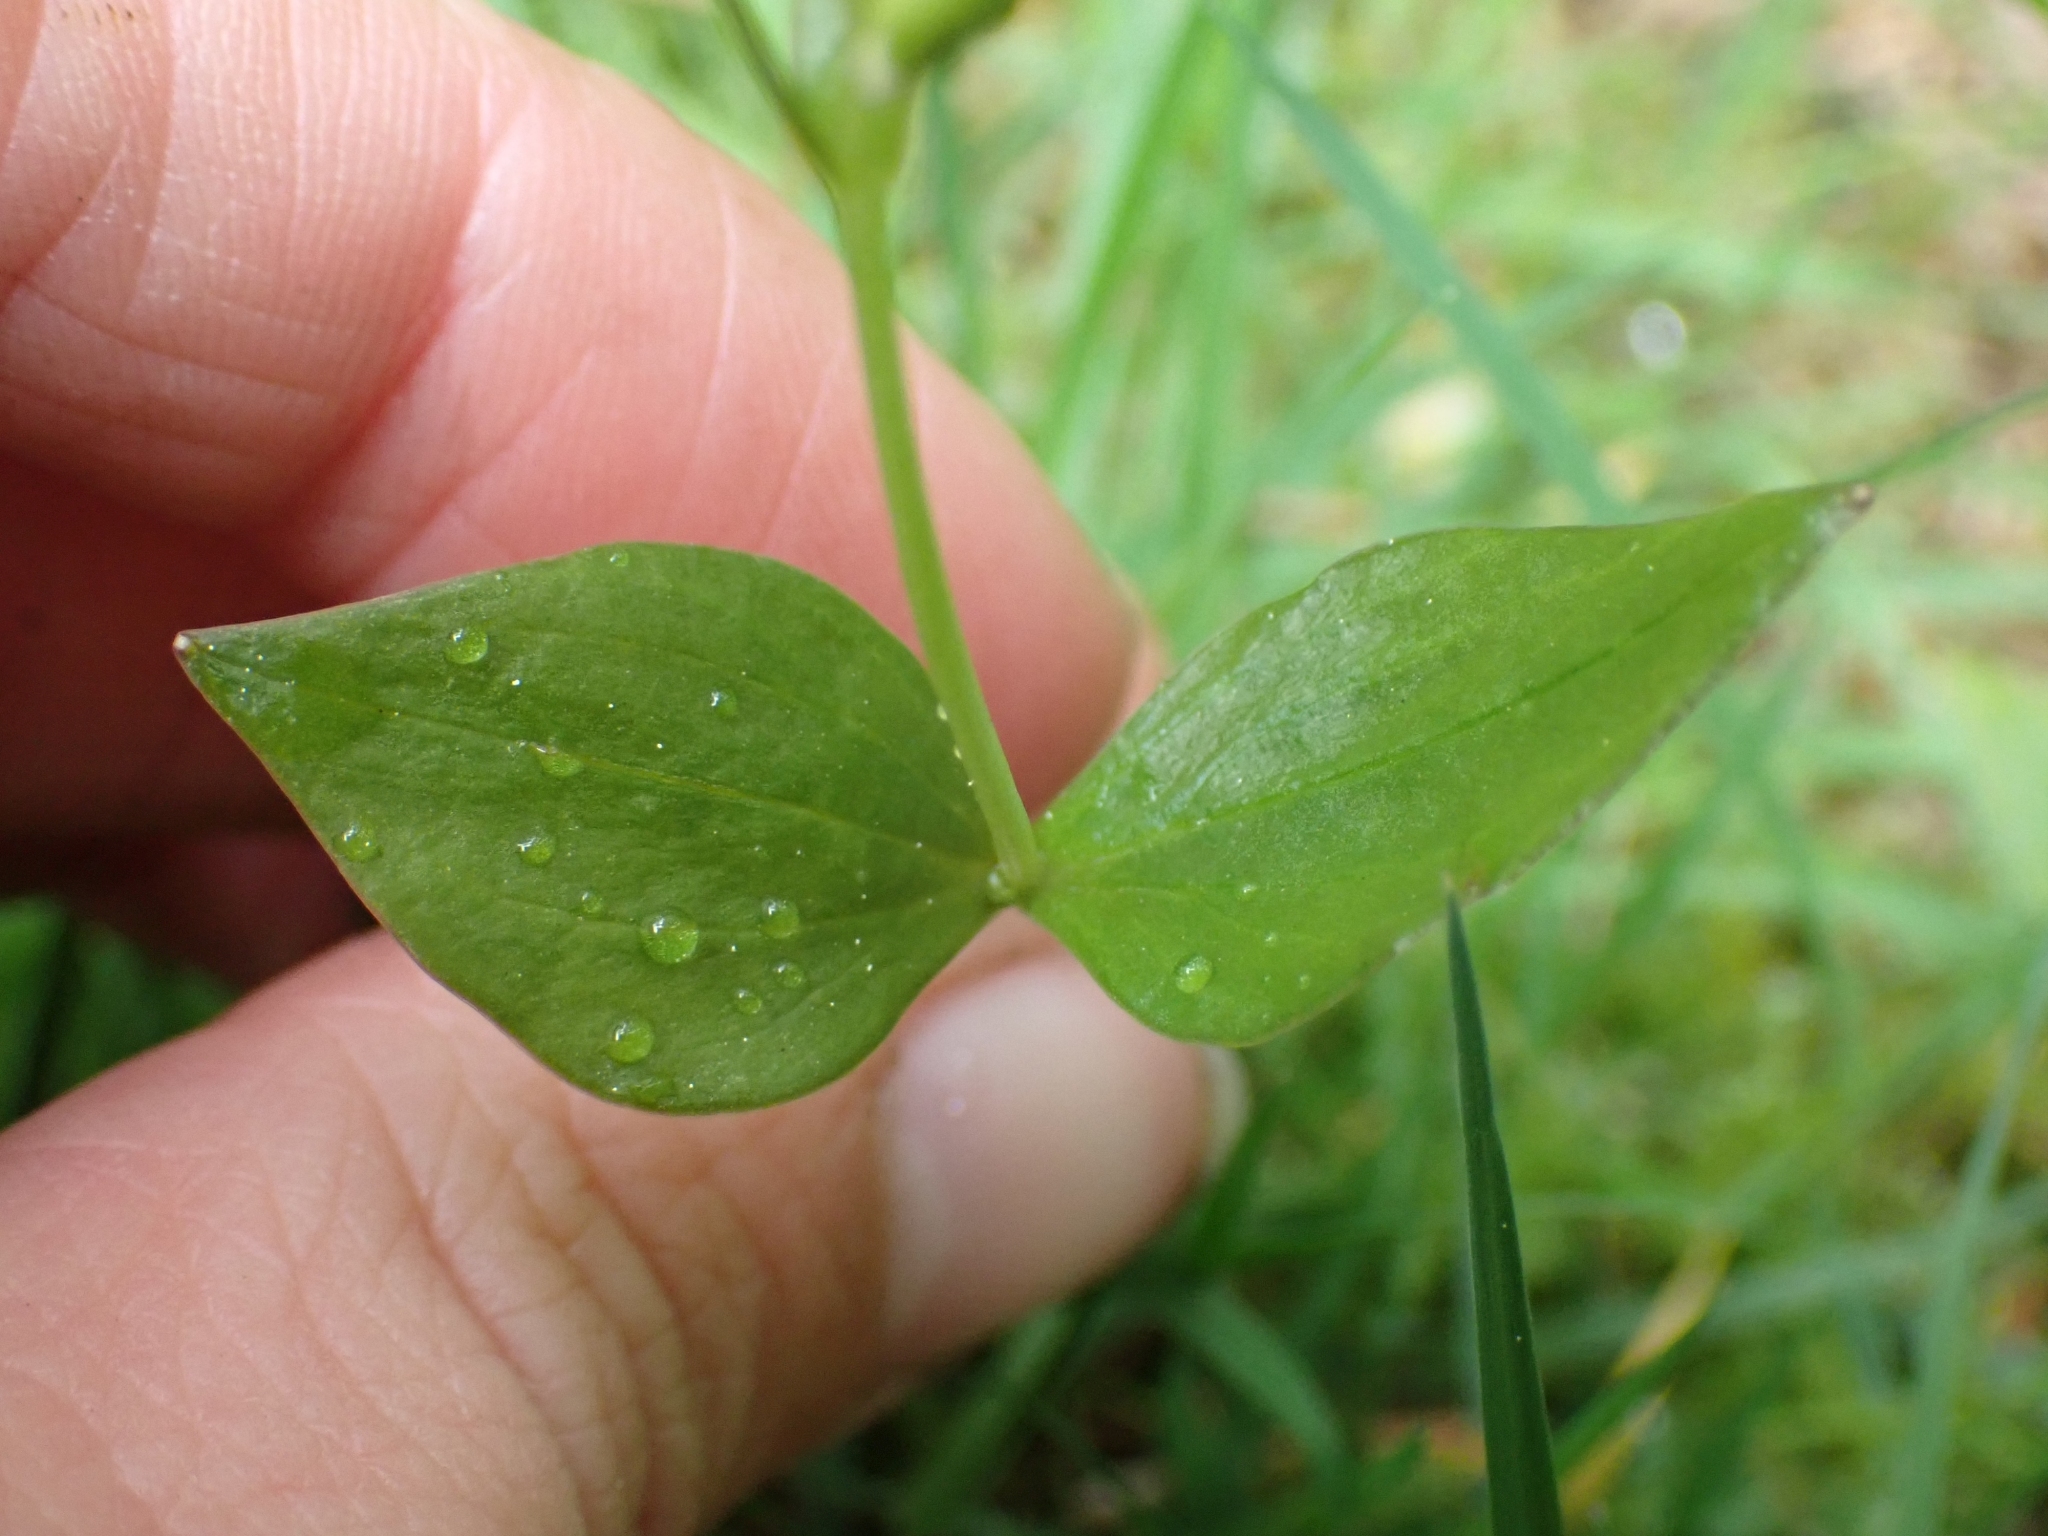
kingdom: Plantae
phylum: Tracheophyta
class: Magnoliopsida
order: Caryophyllales
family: Montiaceae
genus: Claytonia
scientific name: Claytonia sibirica
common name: Pink purslane
